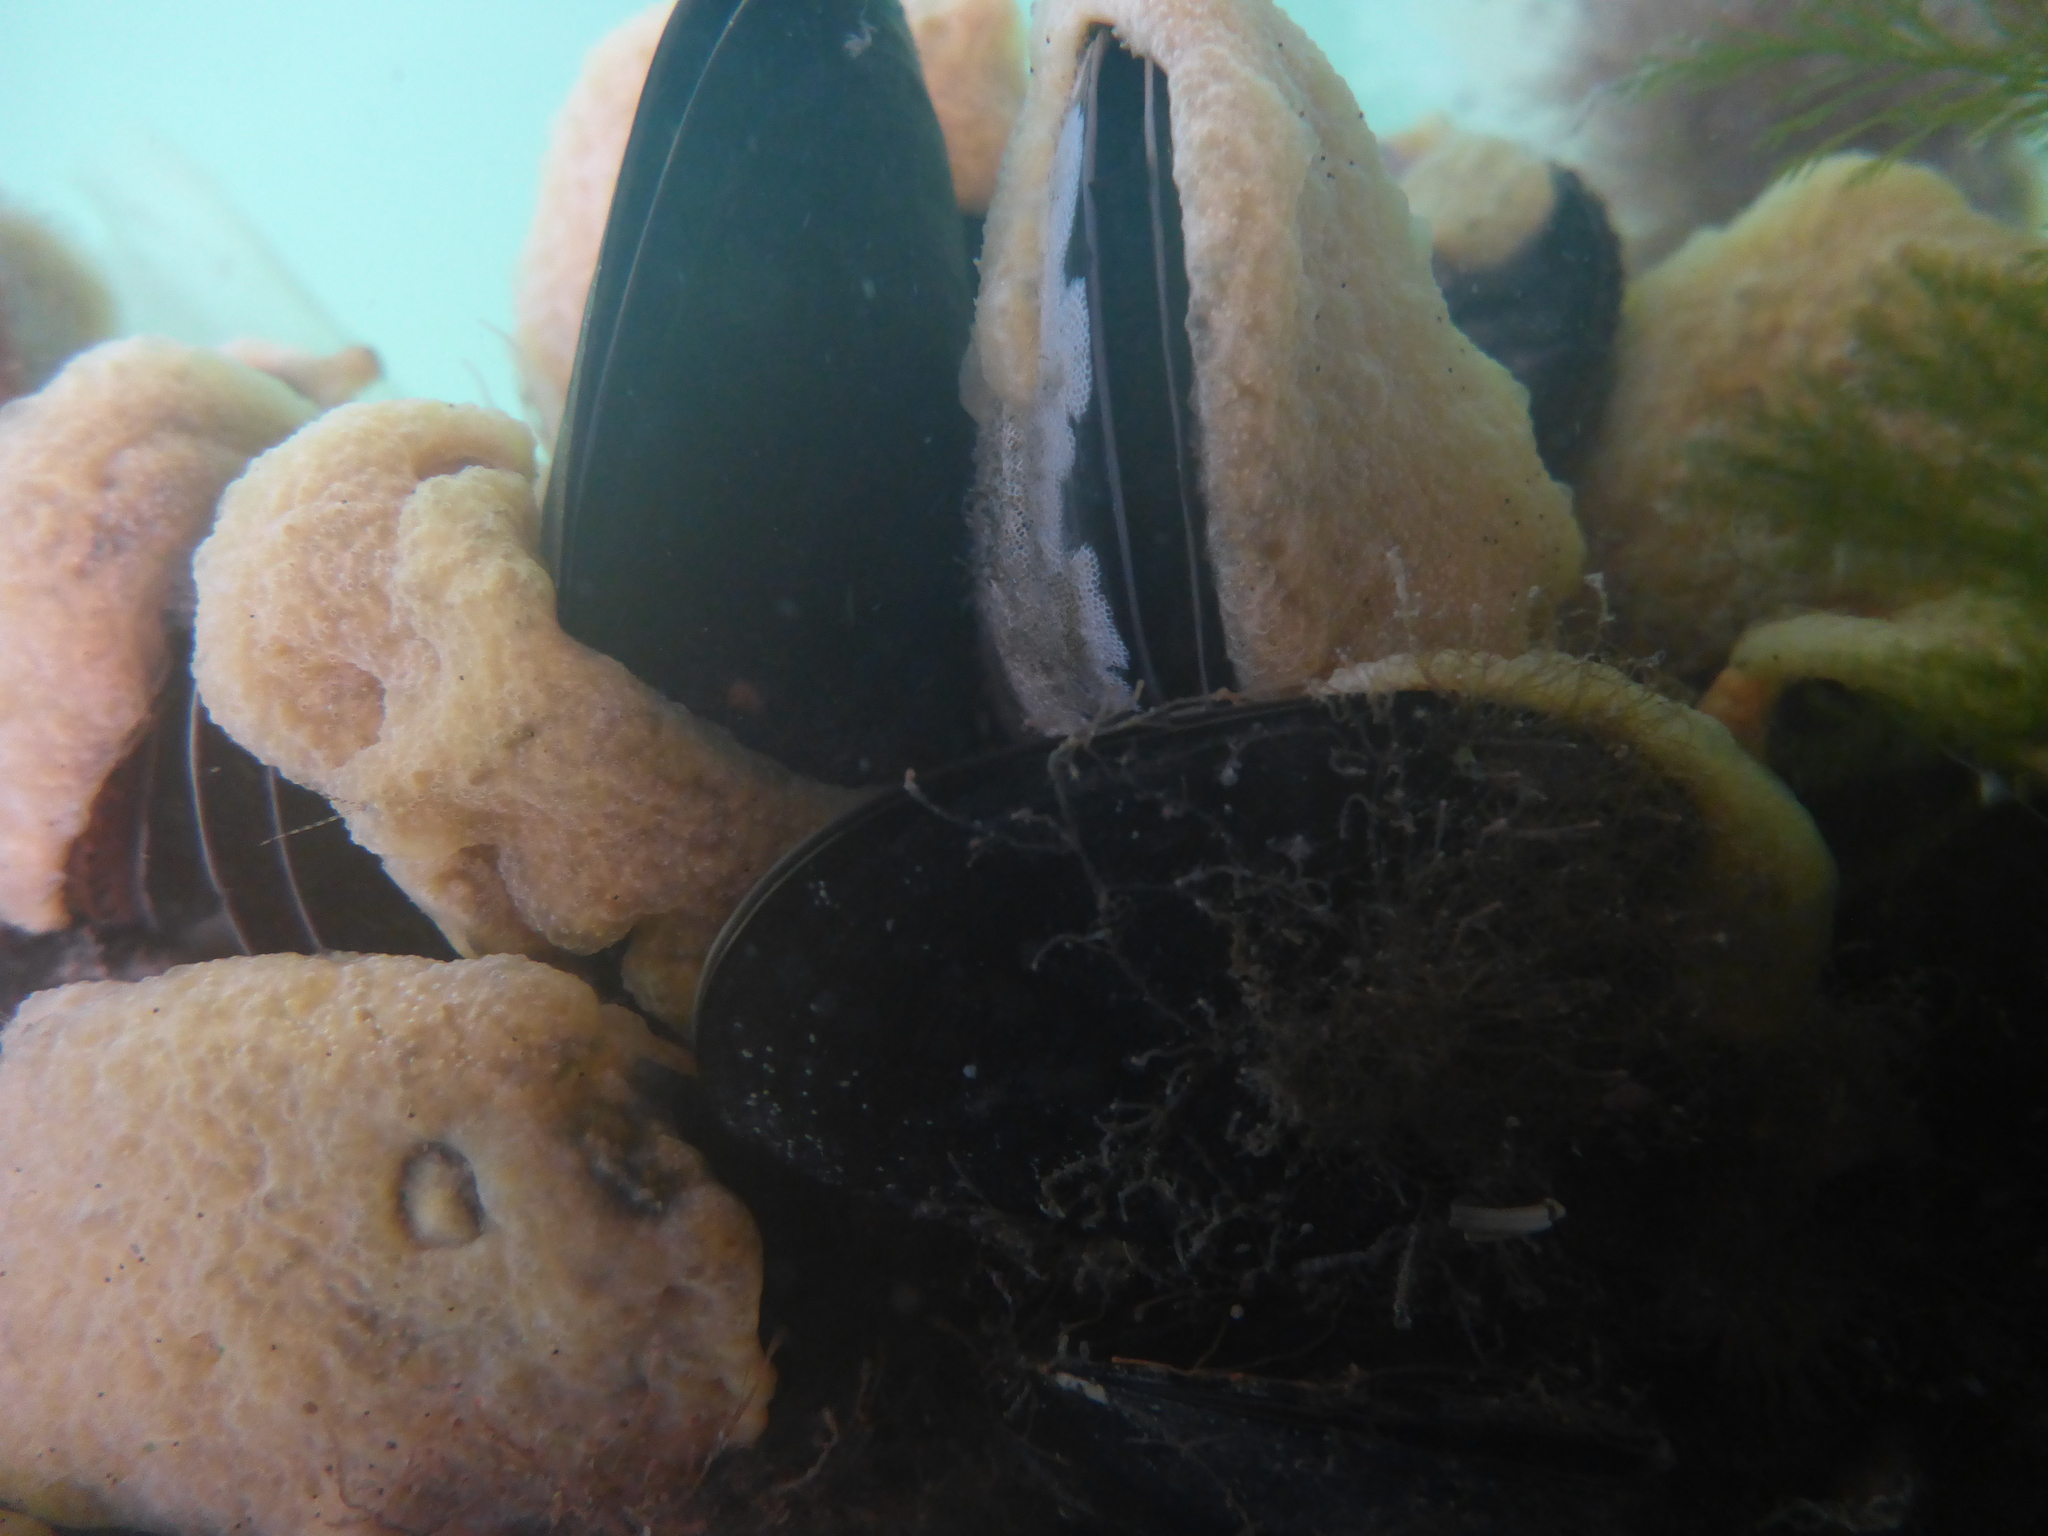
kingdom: Animalia
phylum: Mollusca
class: Bivalvia
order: Mytilida
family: Mytilidae
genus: Mytilus
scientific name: Mytilus
